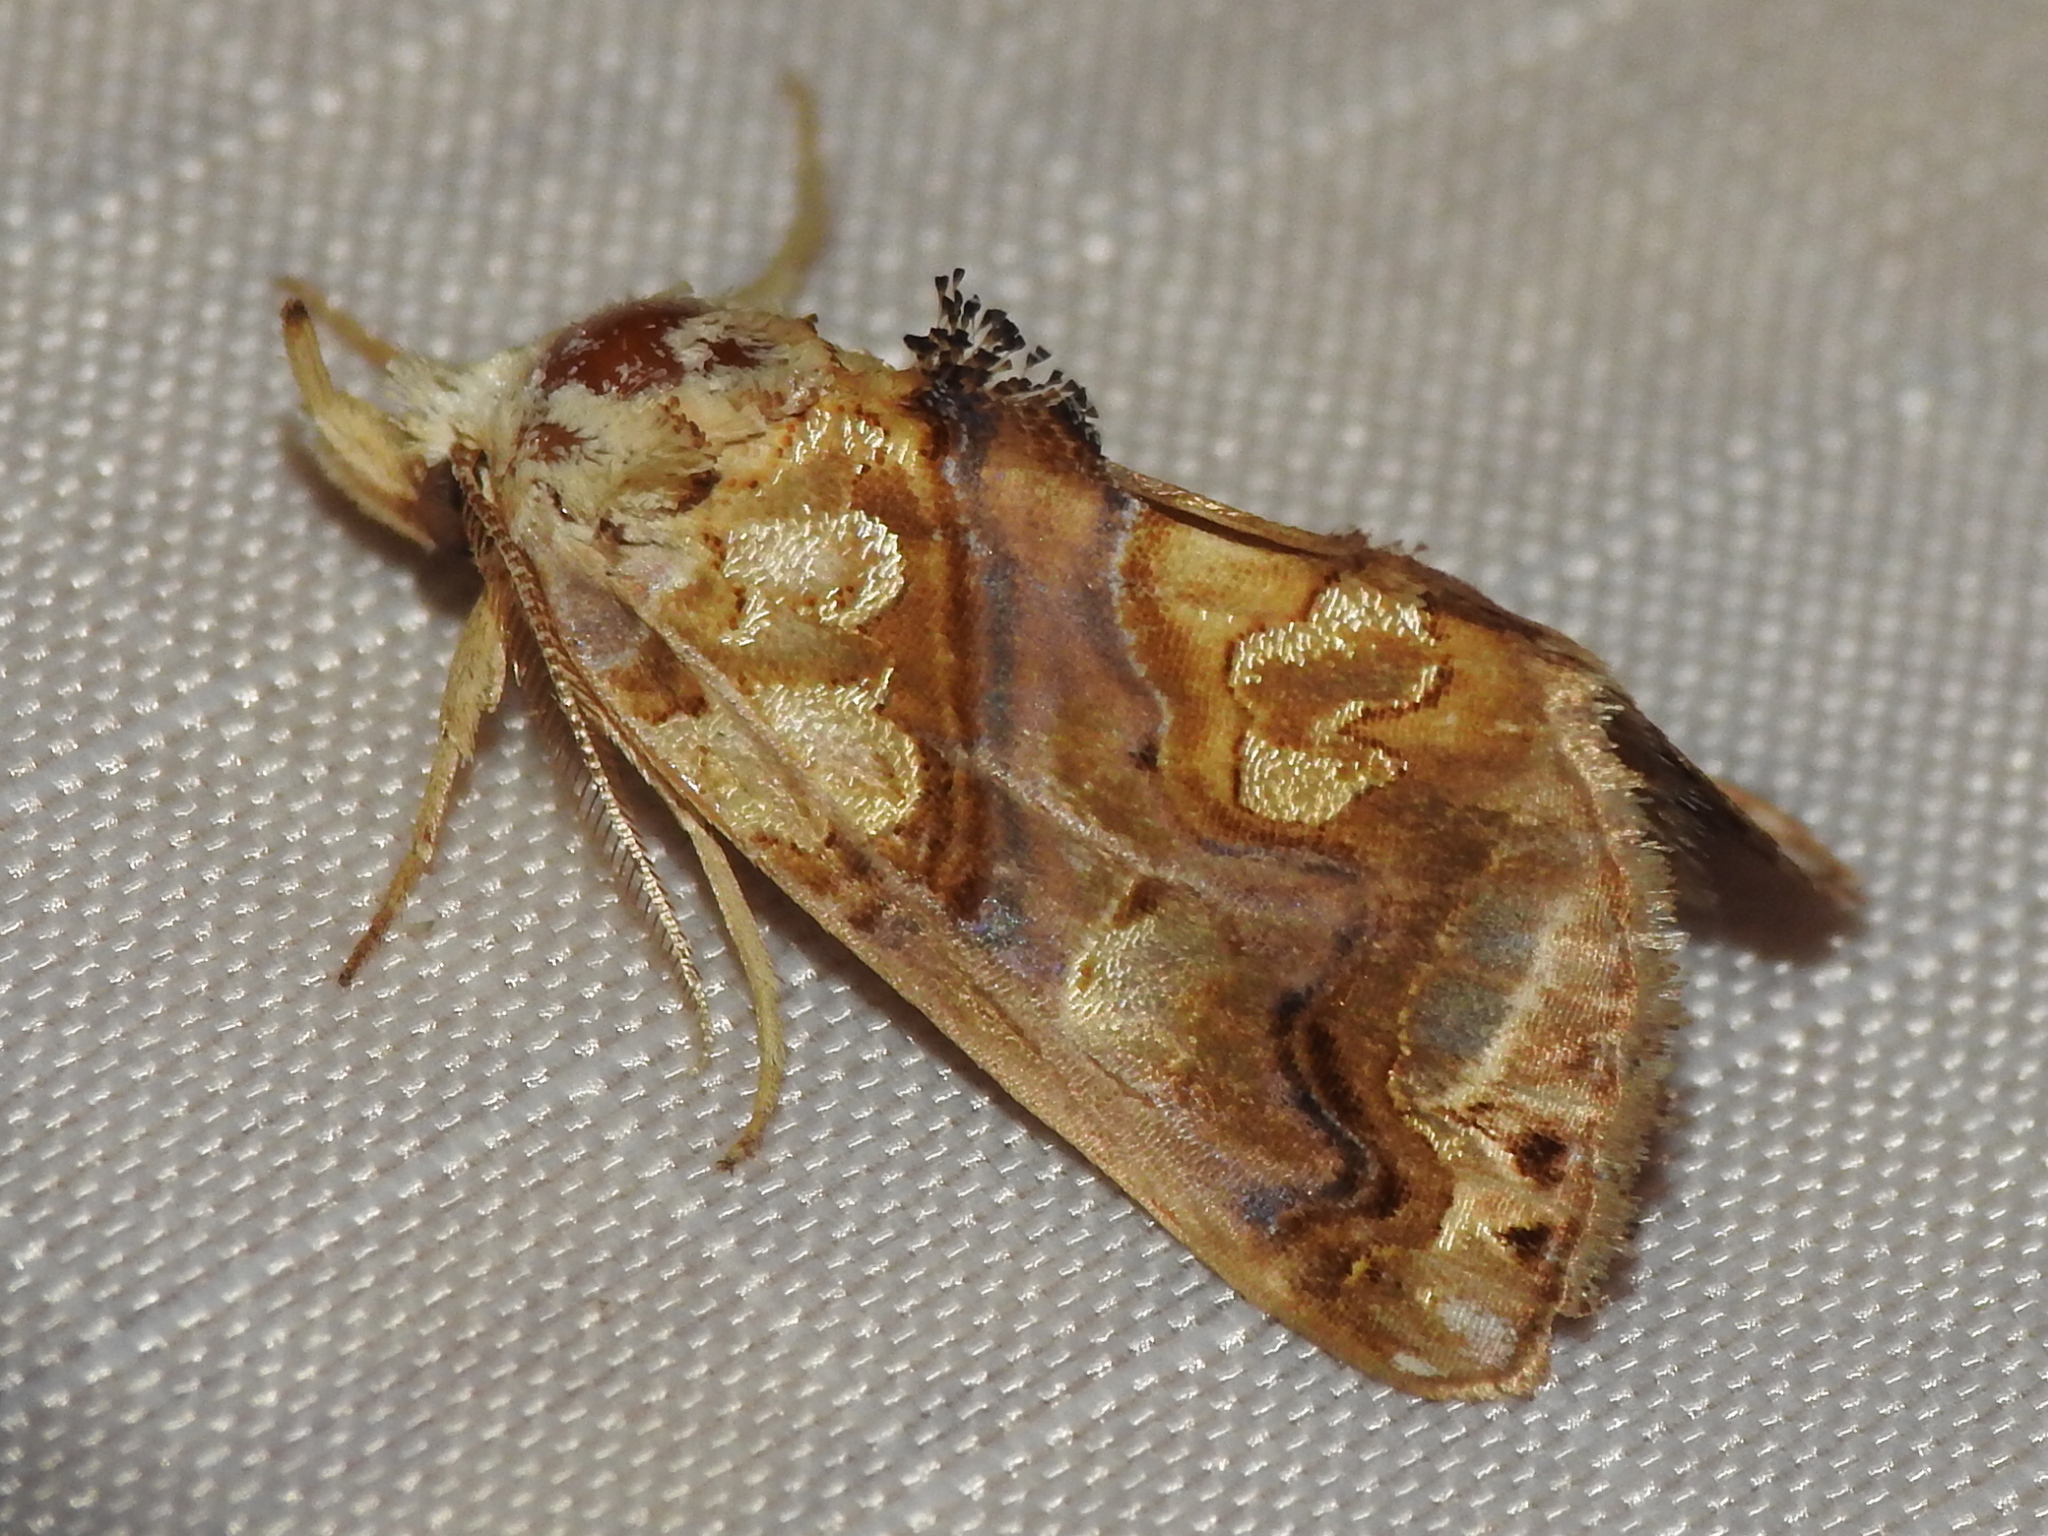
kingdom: Animalia
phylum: Arthropoda
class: Insecta
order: Lepidoptera
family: Erebidae
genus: Plusiodonta
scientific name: Plusiodonta compressipalpis
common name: Moonseed moth
